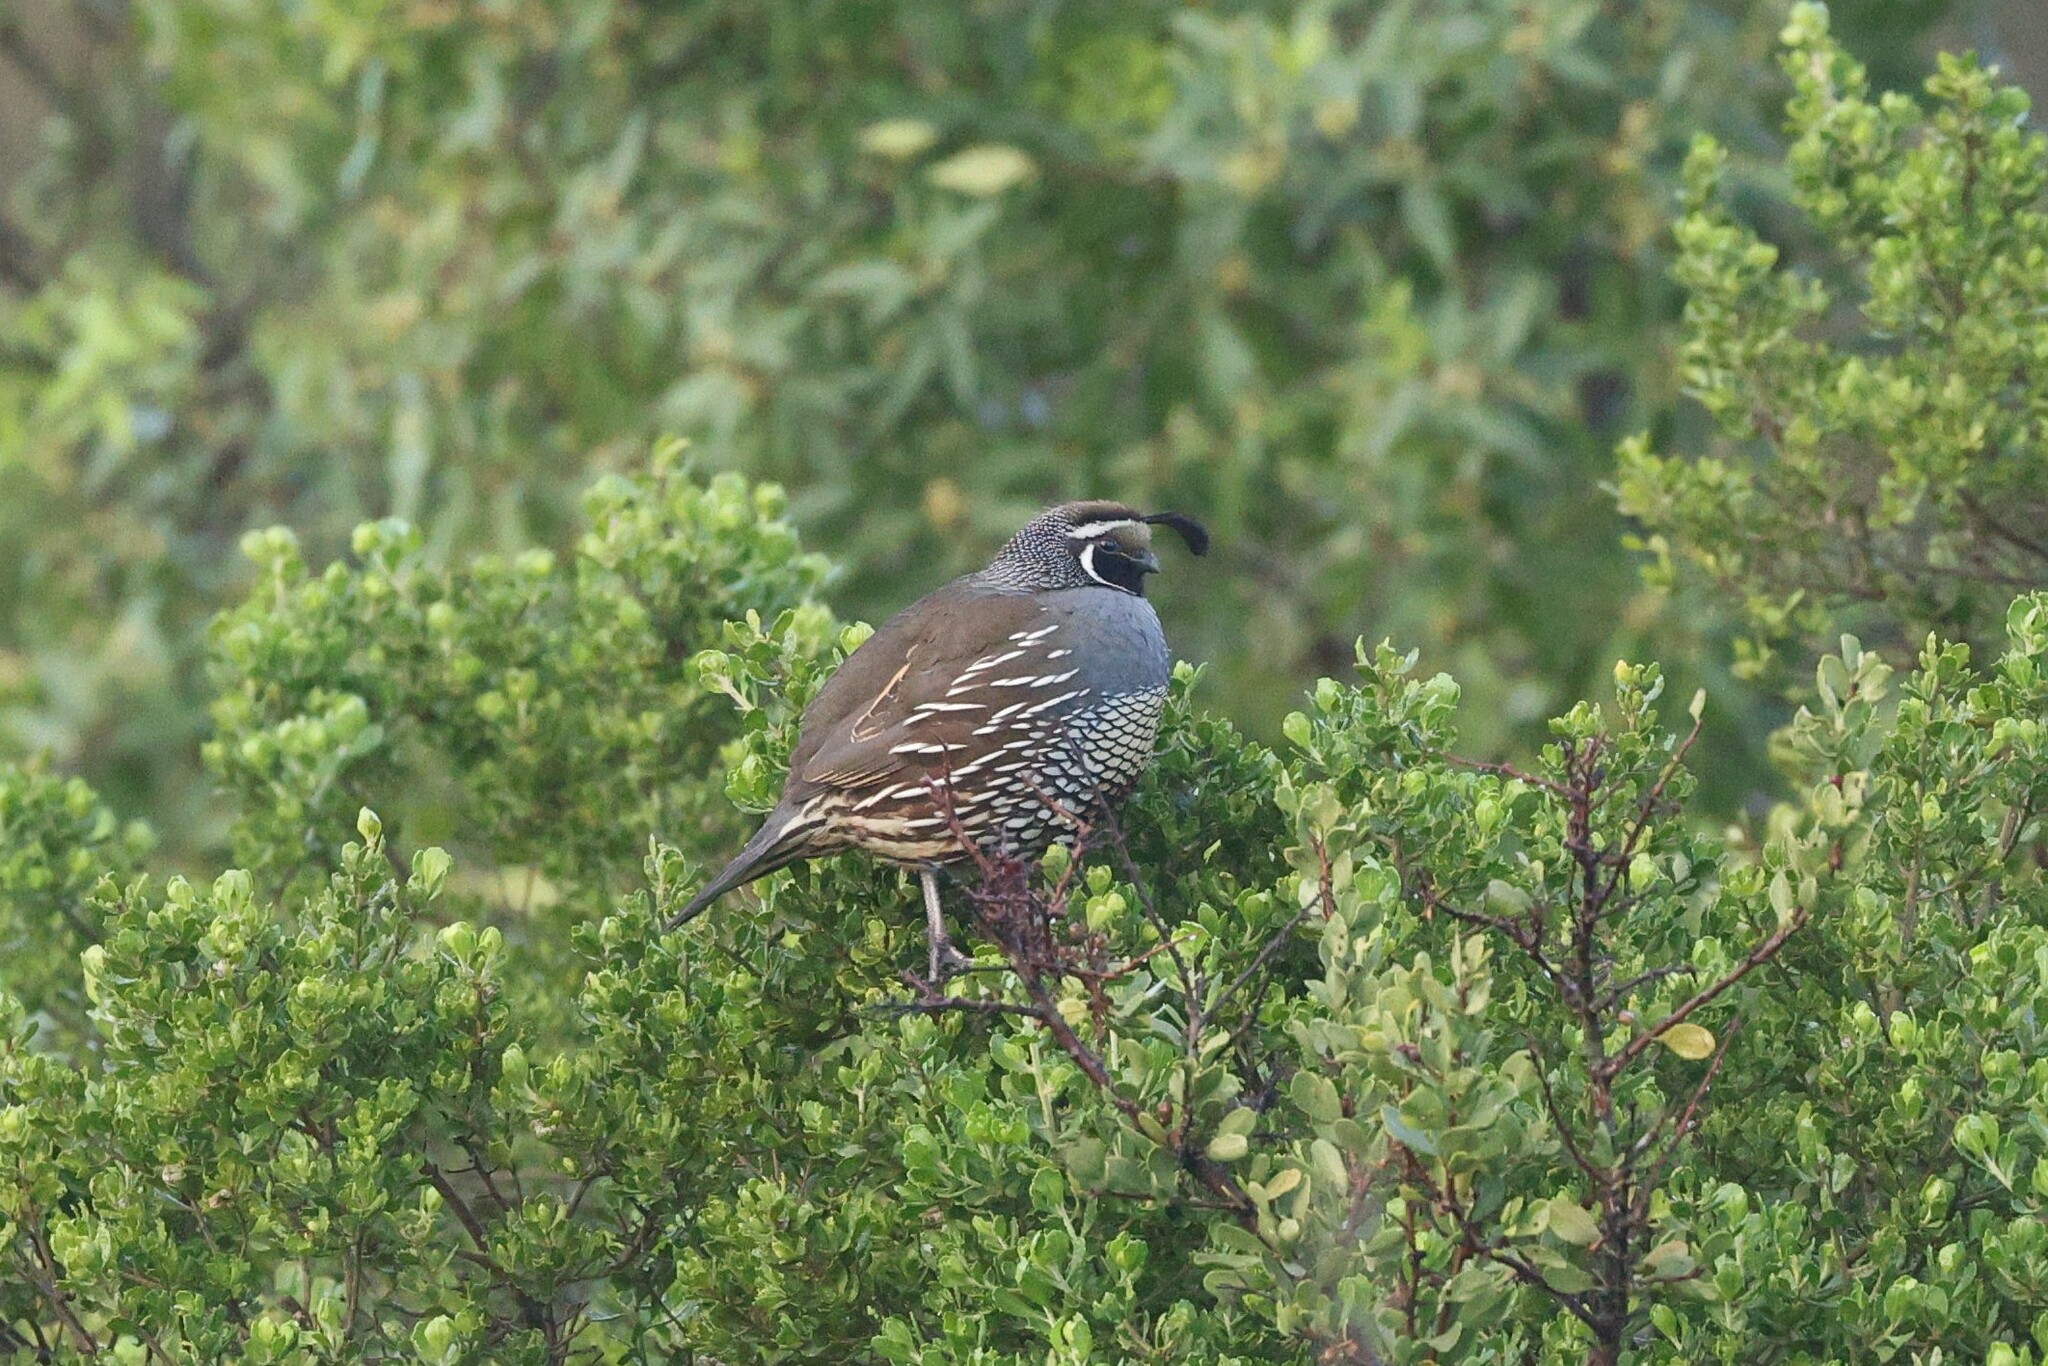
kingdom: Animalia
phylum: Chordata
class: Aves
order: Galliformes
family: Odontophoridae
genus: Callipepla
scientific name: Callipepla californica
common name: California quail
